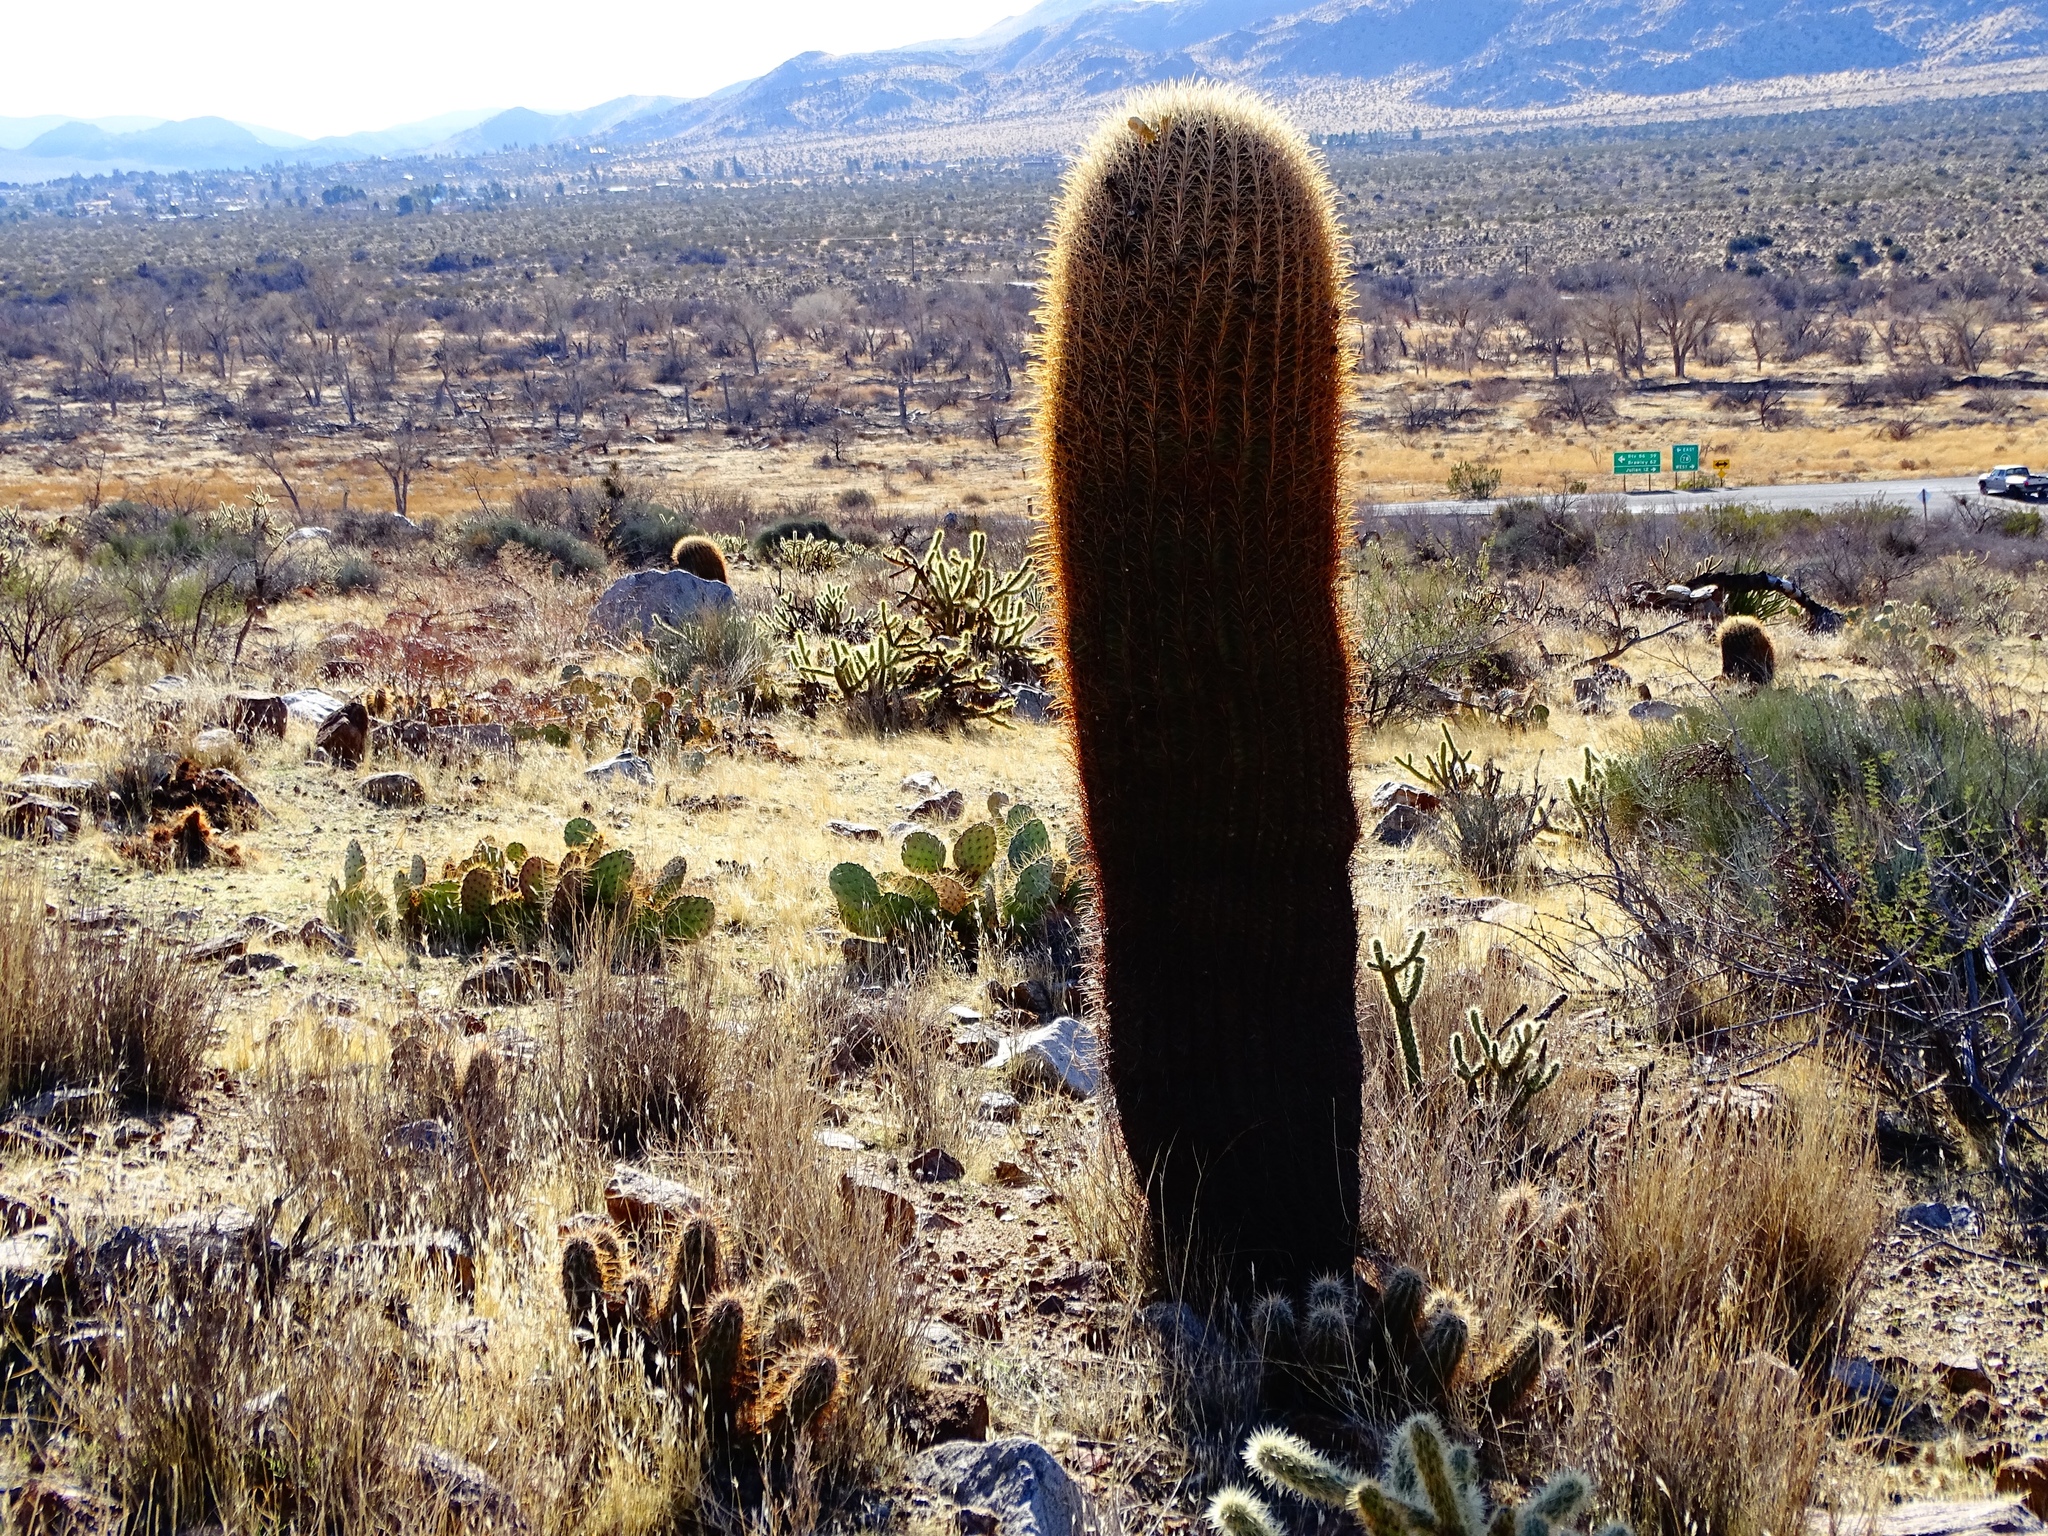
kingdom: Plantae
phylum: Tracheophyta
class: Magnoliopsida
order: Caryophyllales
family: Cactaceae
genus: Ferocactus
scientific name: Ferocactus cylindraceus
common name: California barrel cactus
